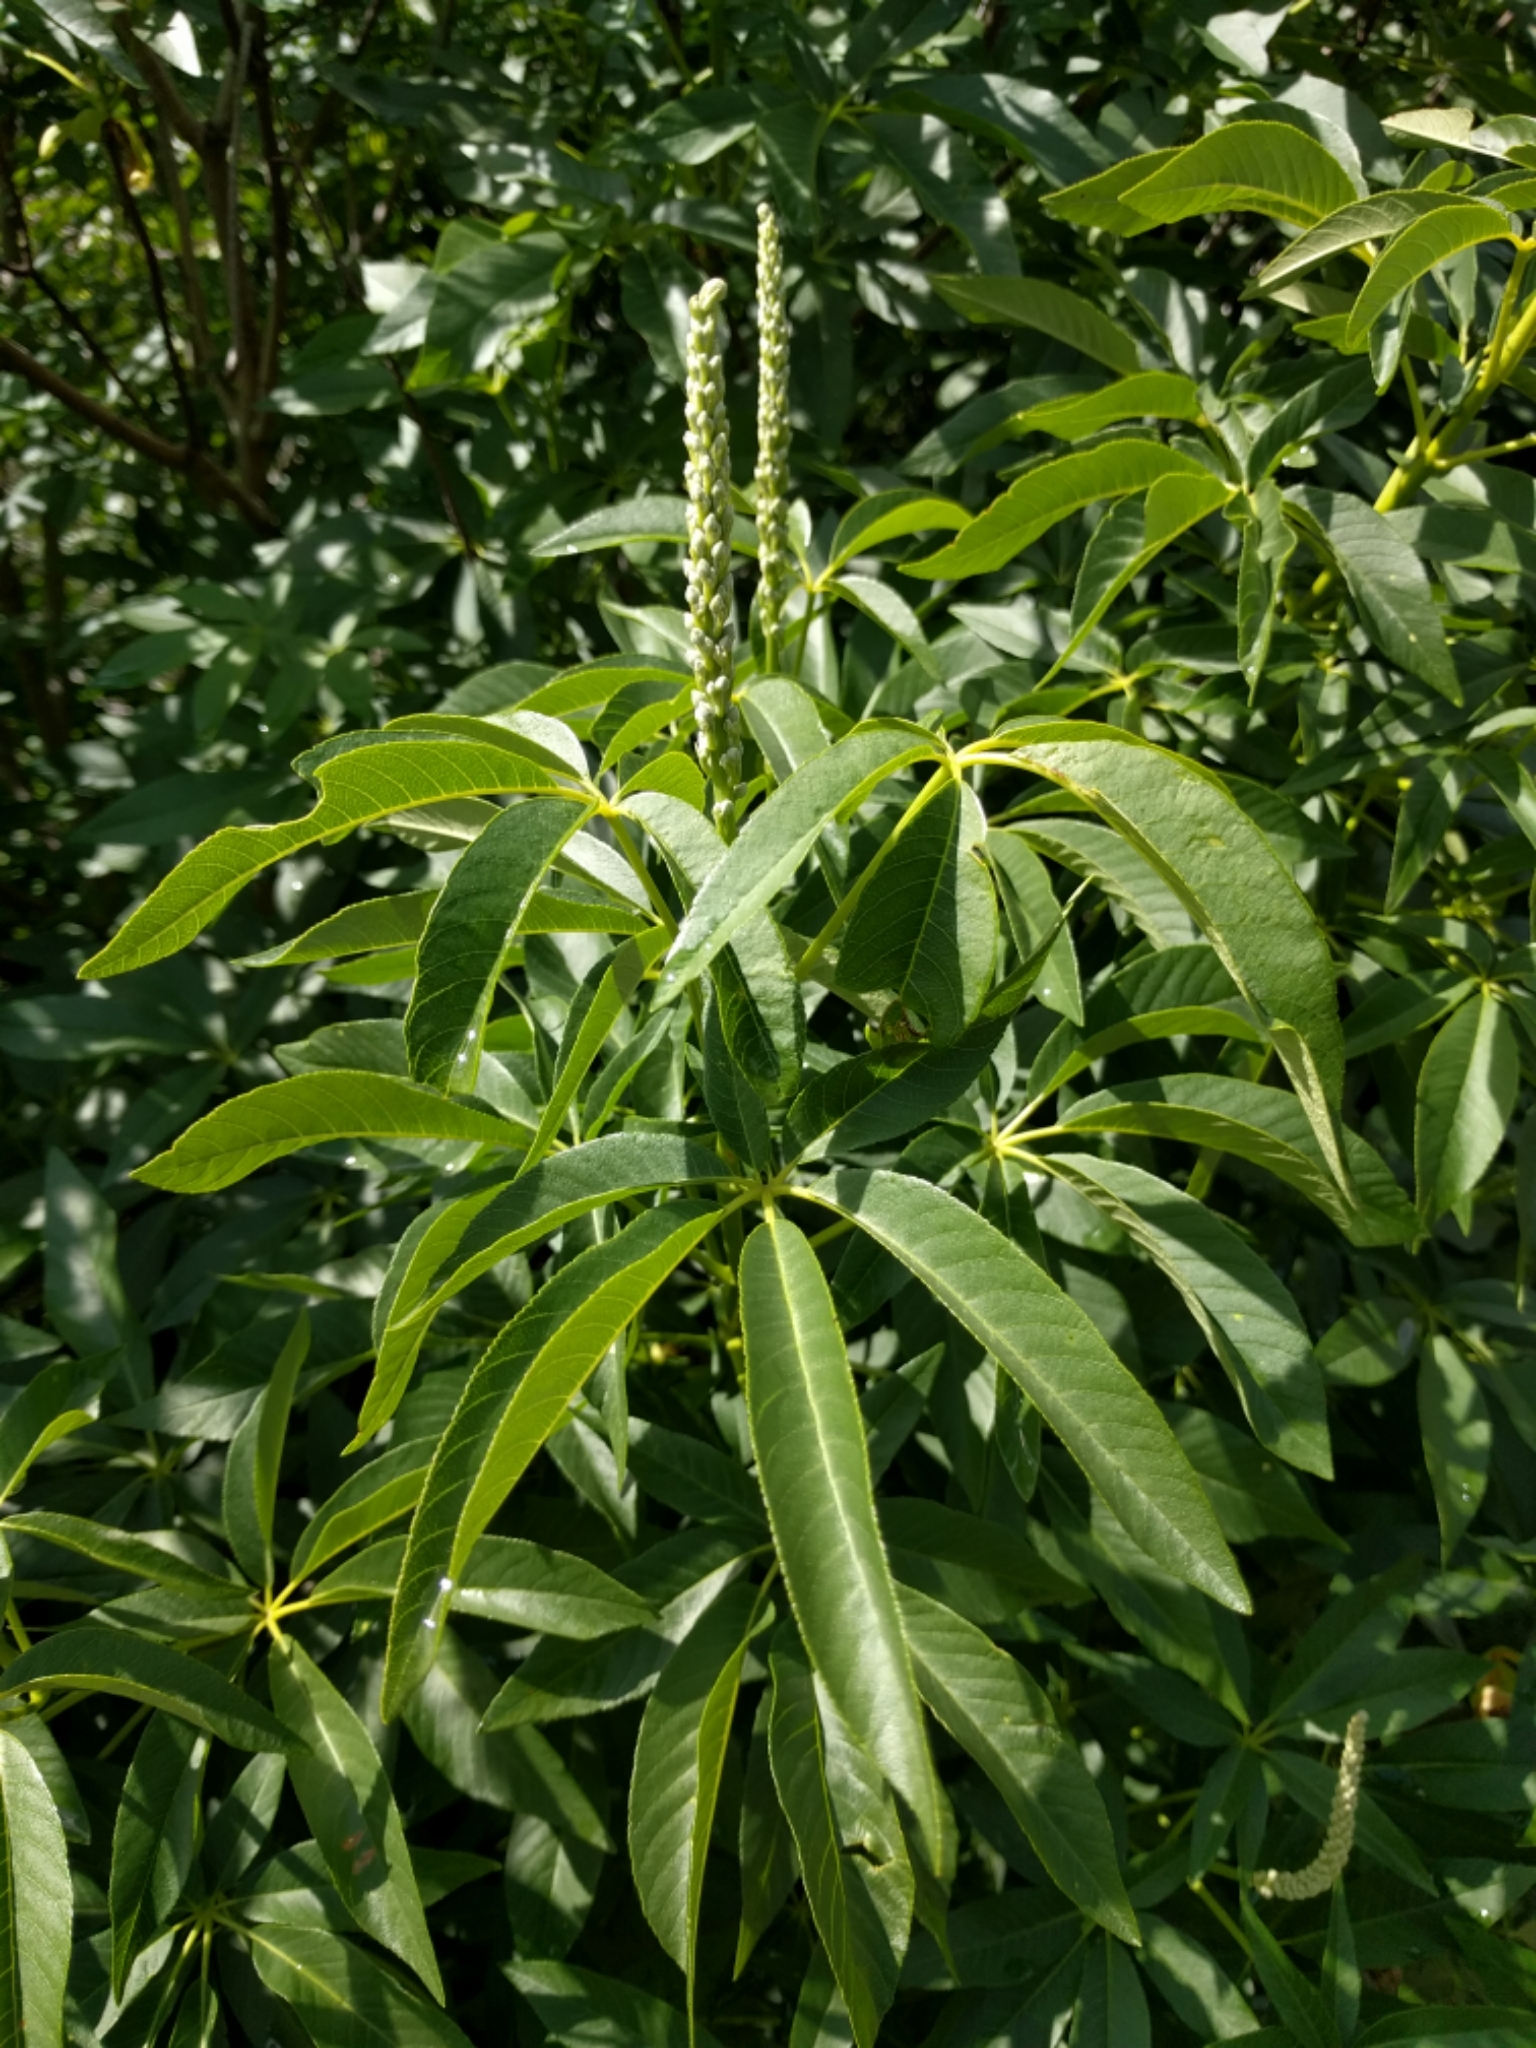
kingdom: Plantae
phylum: Tracheophyta
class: Magnoliopsida
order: Sapindales
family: Sapindaceae
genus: Aesculus
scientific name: Aesculus californica
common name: California buckeye
